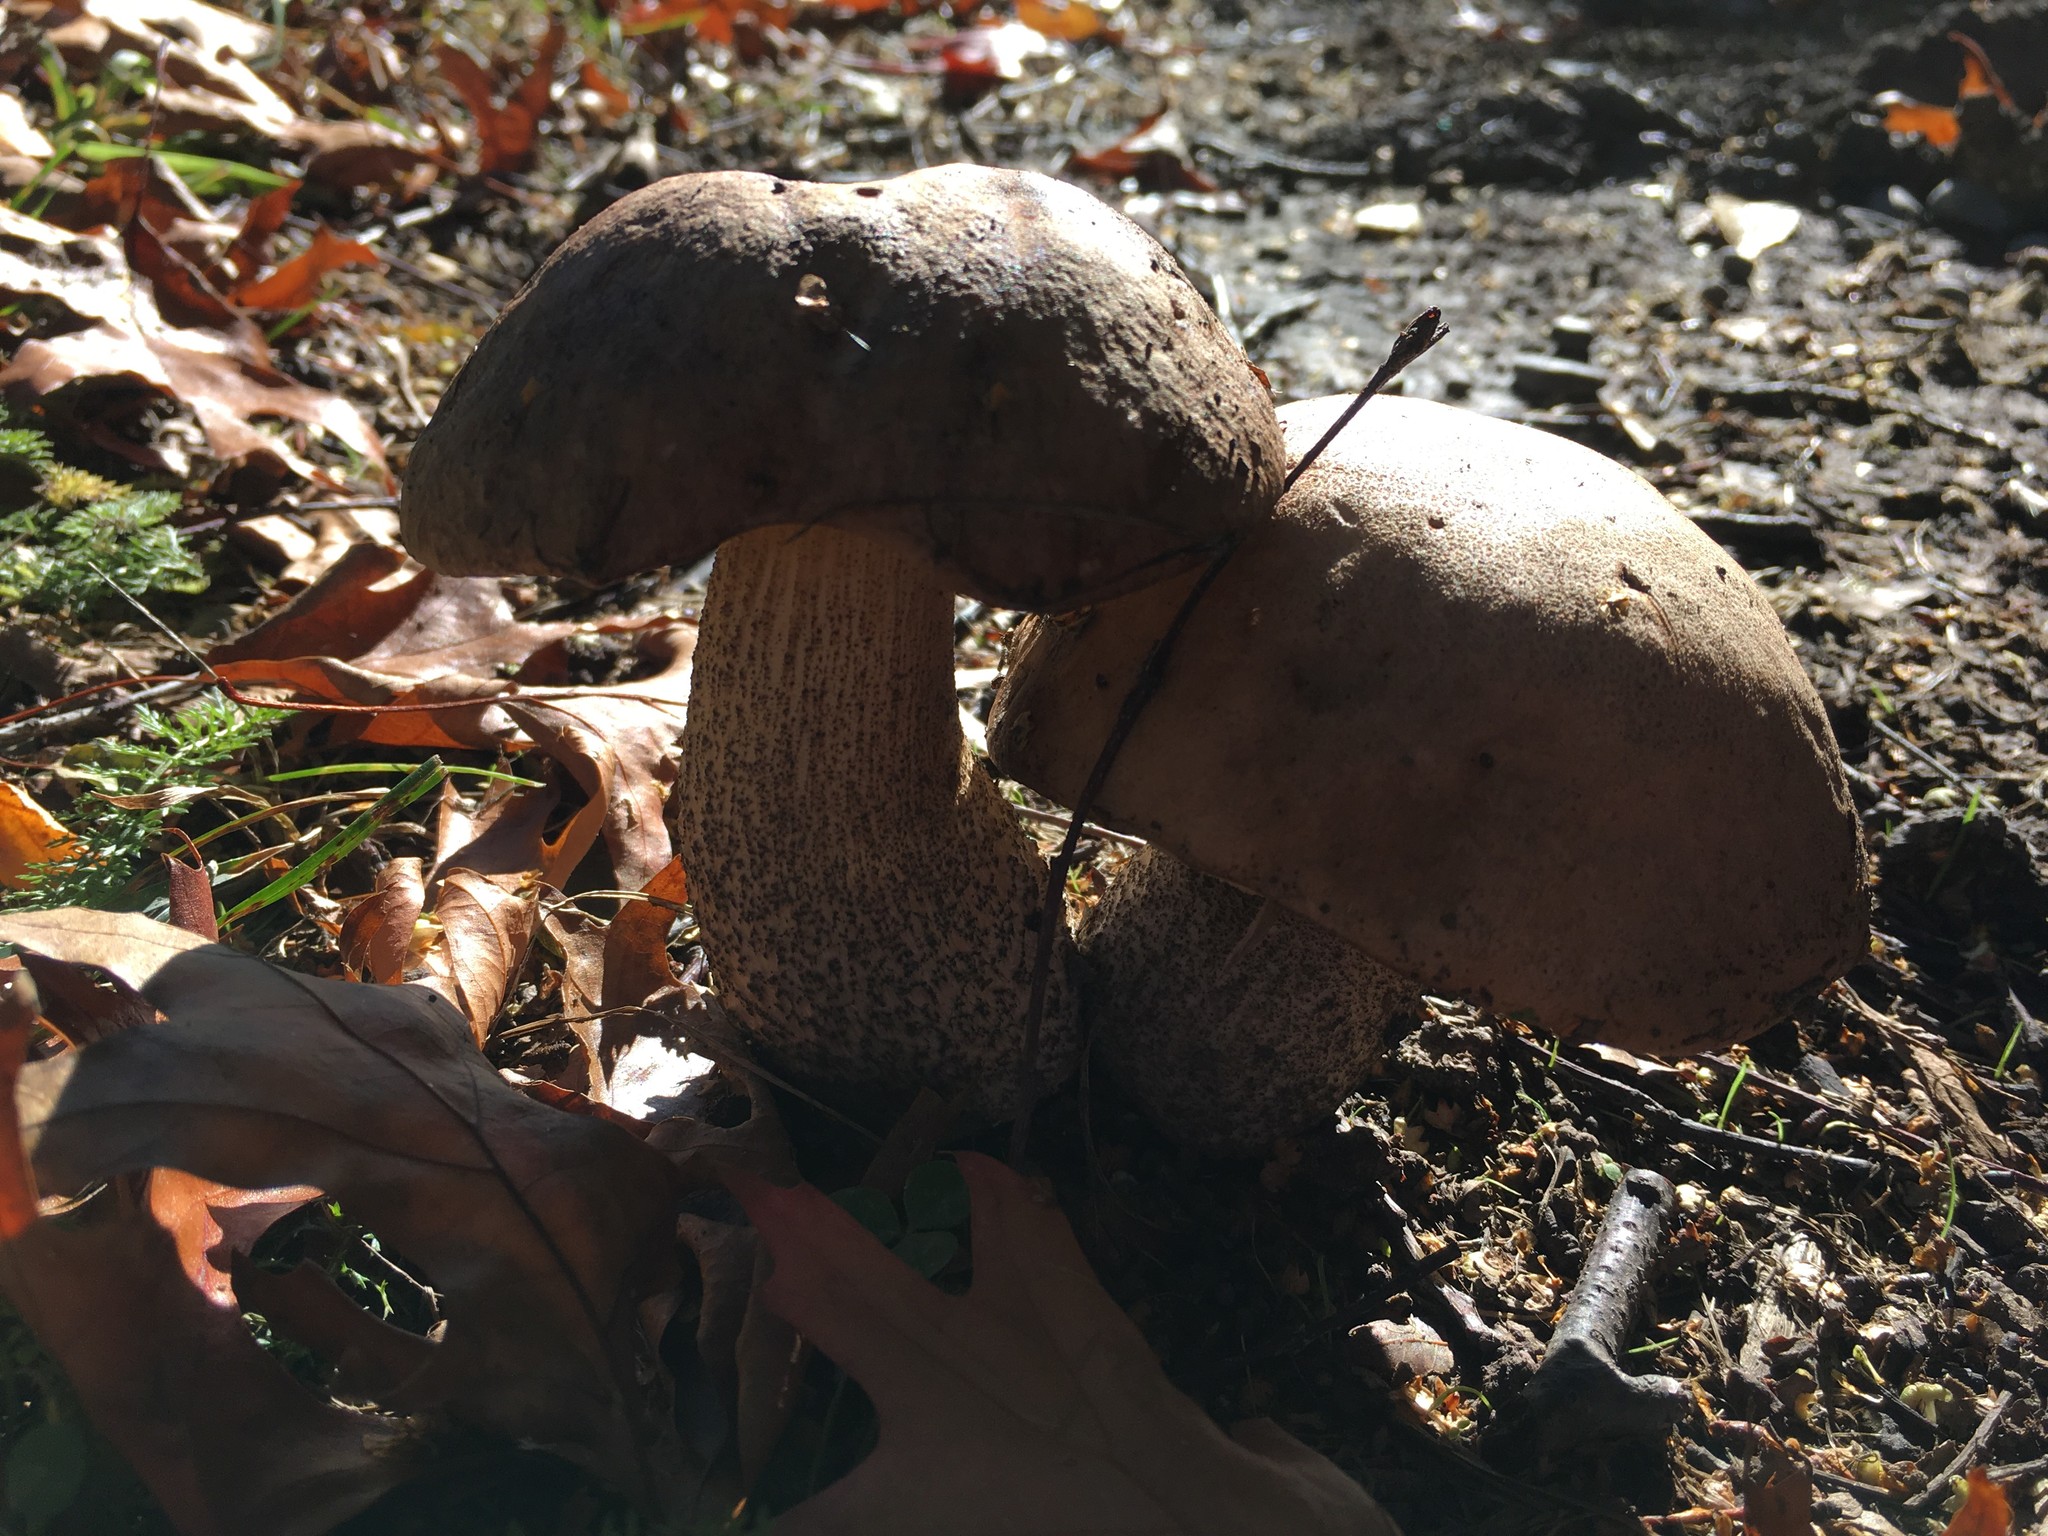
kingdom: Fungi
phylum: Basidiomycota
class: Agaricomycetes
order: Boletales
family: Boletaceae
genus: Leccinum
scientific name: Leccinum scabrum
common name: Blushing bolete
